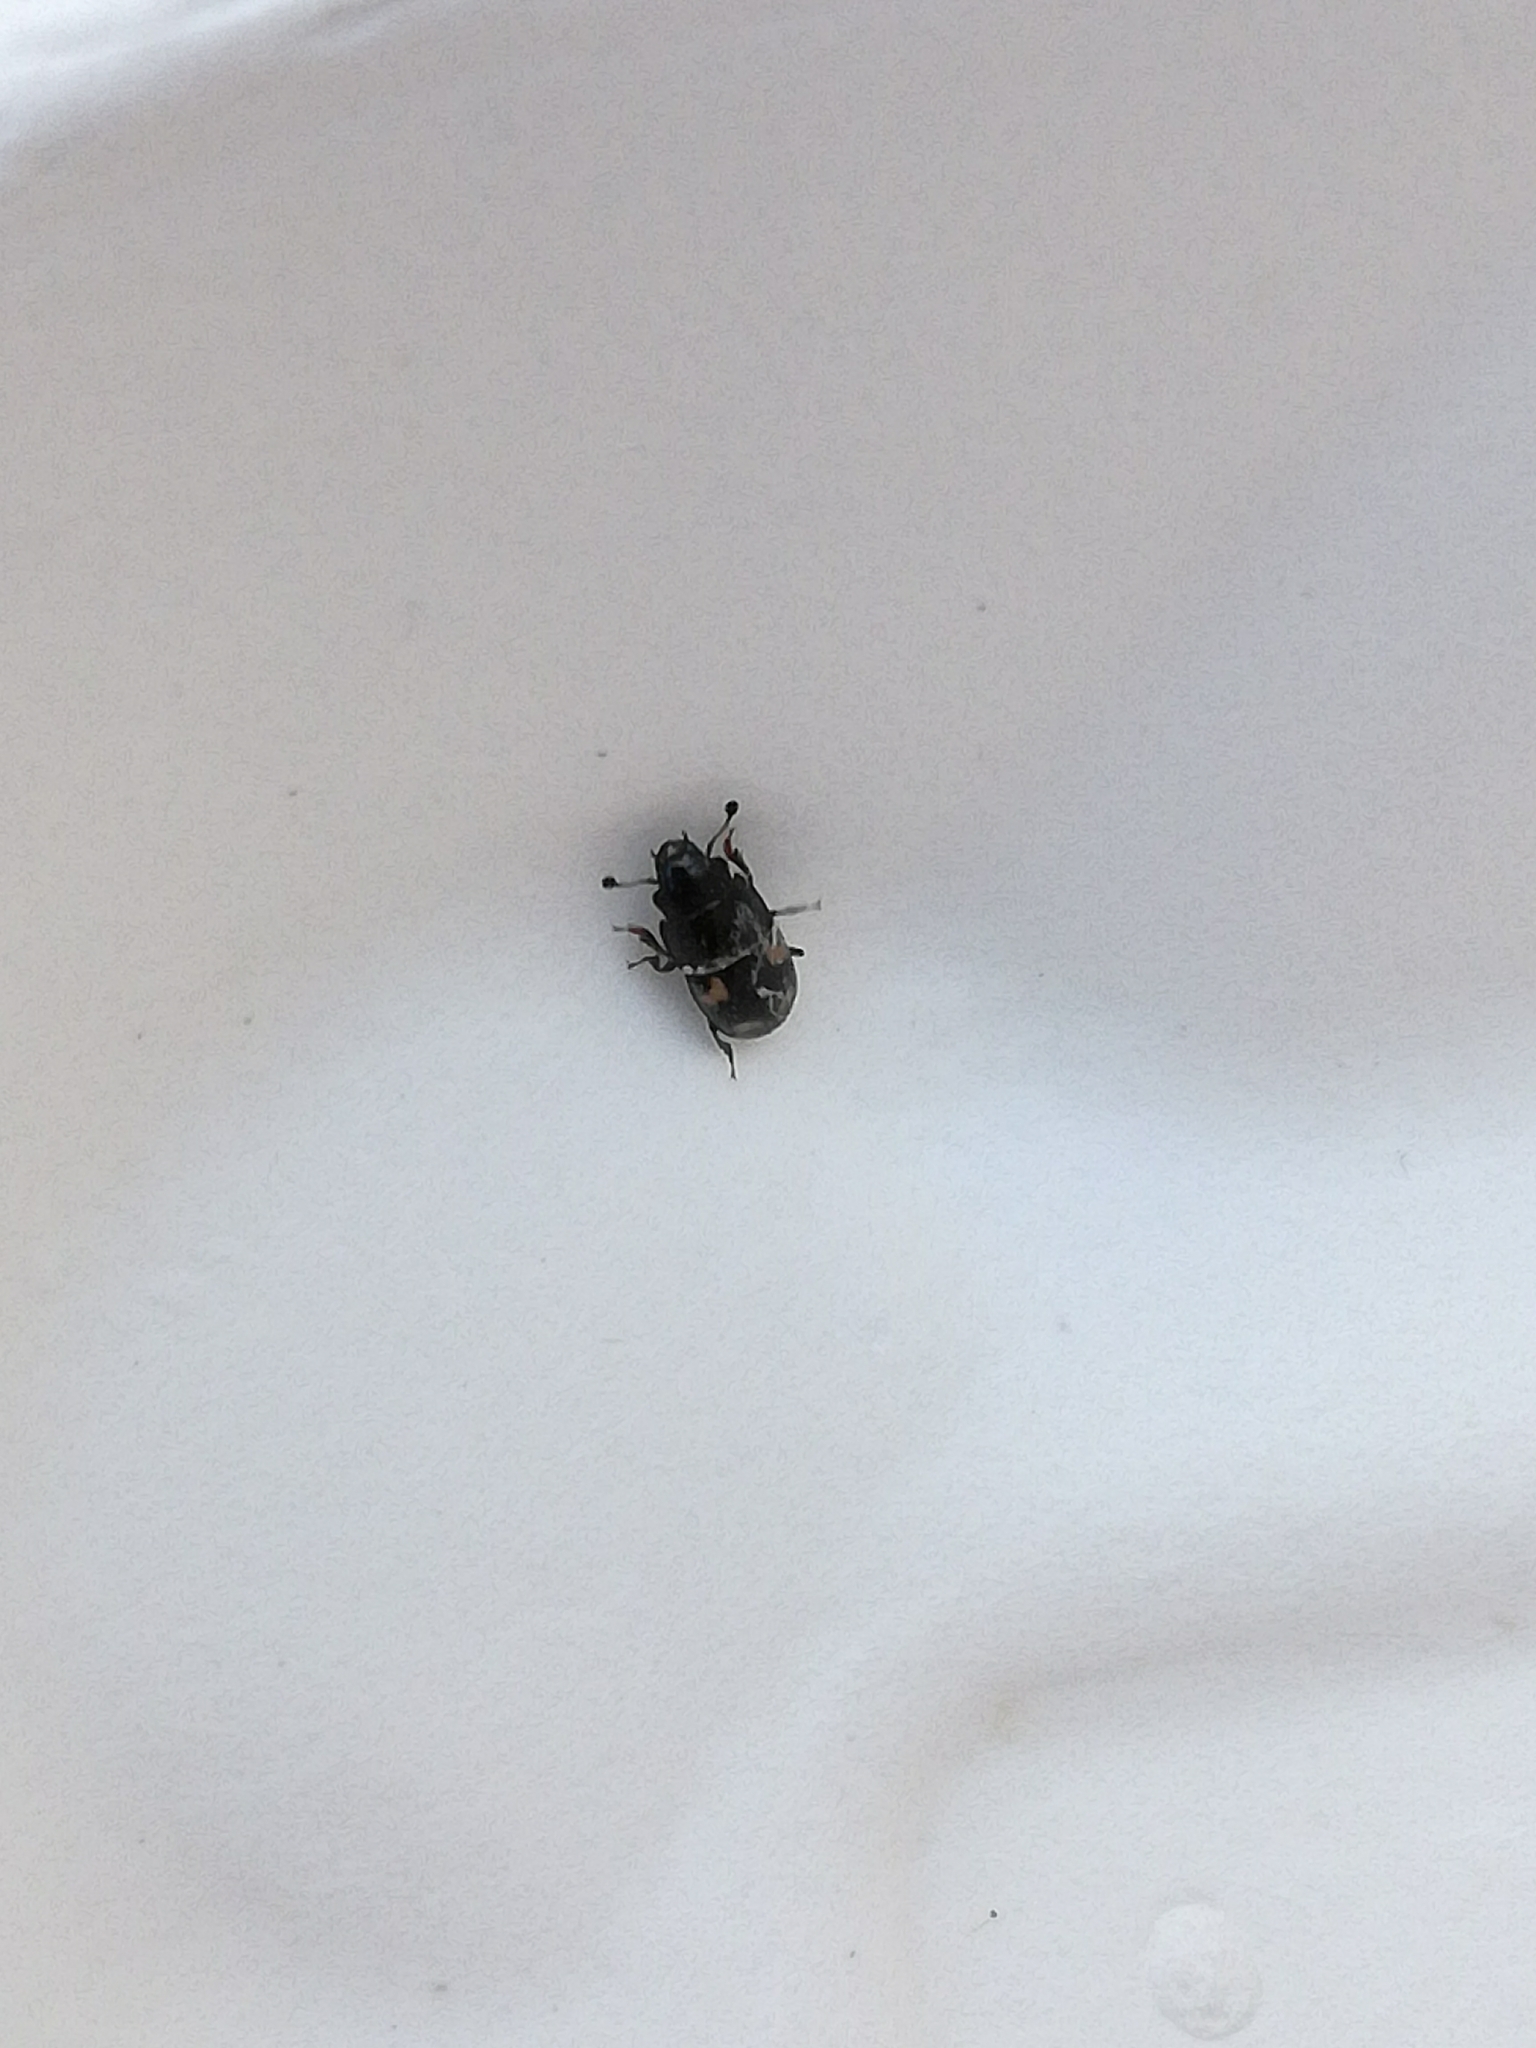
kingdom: Animalia
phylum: Arthropoda
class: Insecta
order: Coleoptera
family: Nitidulidae
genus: Glischrochilus
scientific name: Glischrochilus quadrisignatus
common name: Picnic beetle
